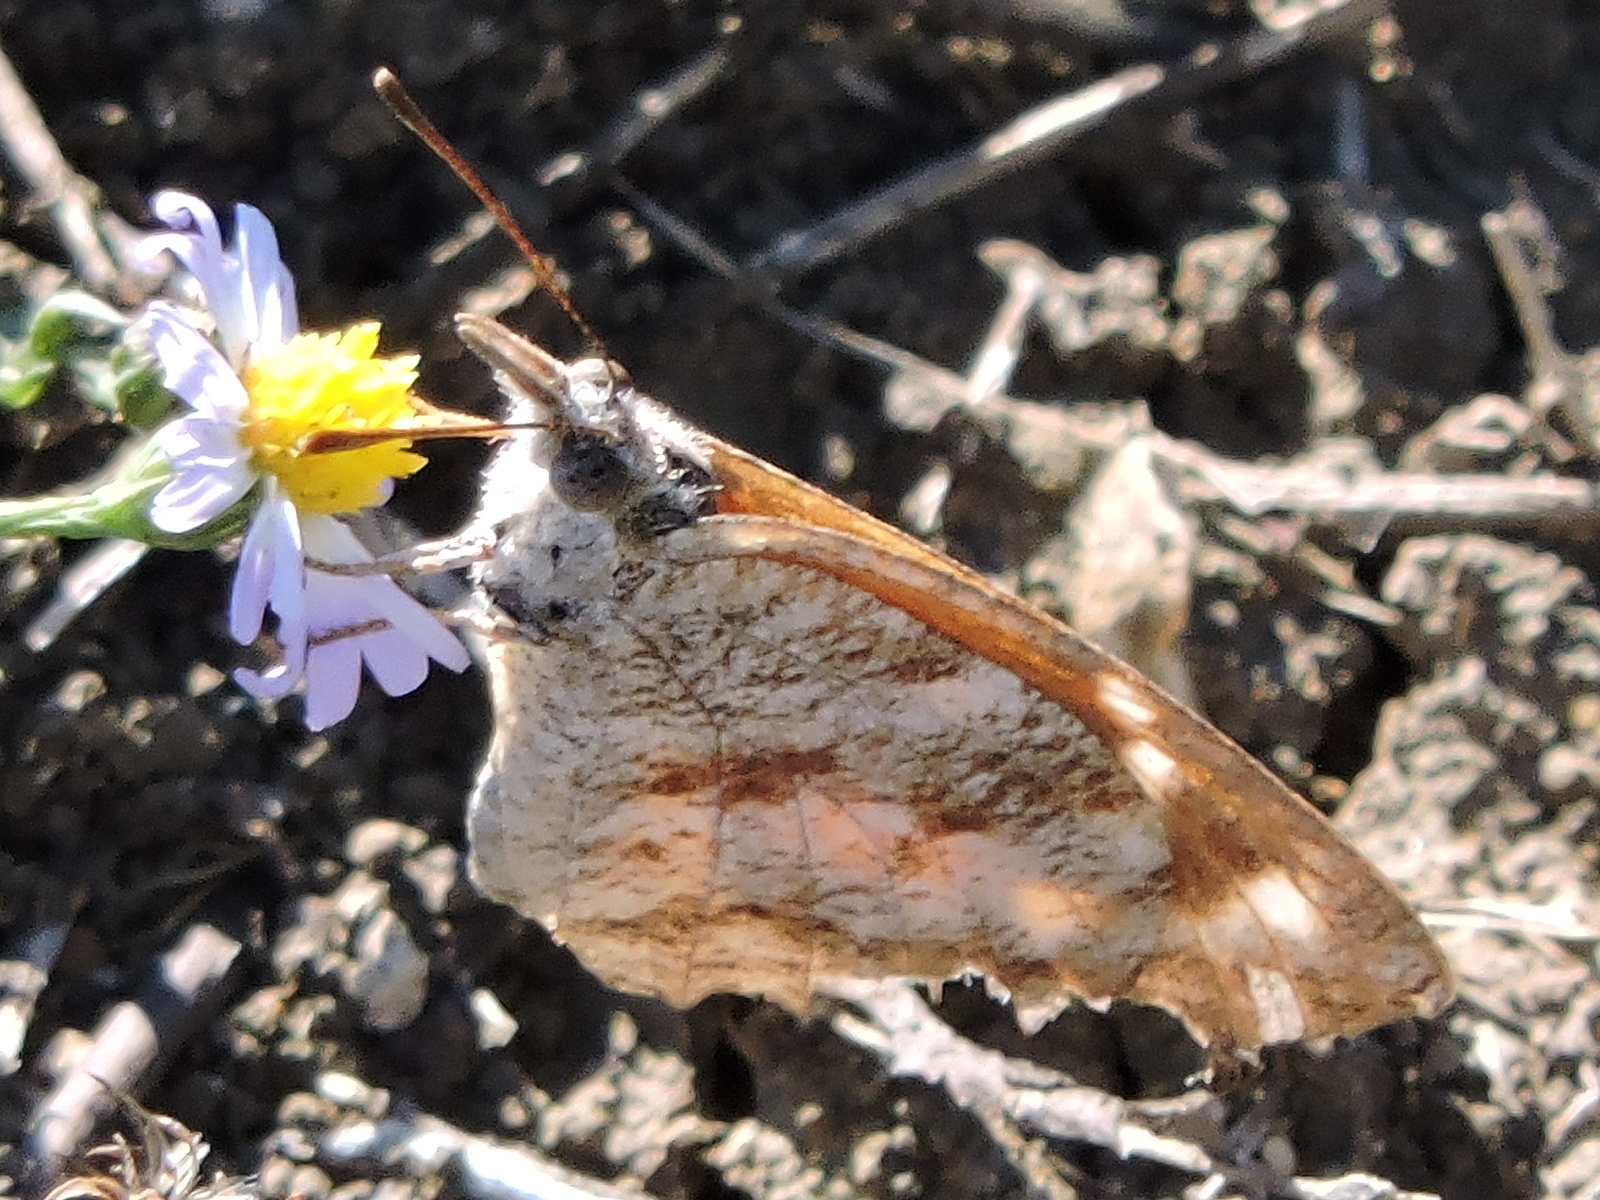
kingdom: Animalia
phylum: Arthropoda
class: Insecta
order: Lepidoptera
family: Nymphalidae
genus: Libytheana
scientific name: Libytheana carinenta
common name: American snout
